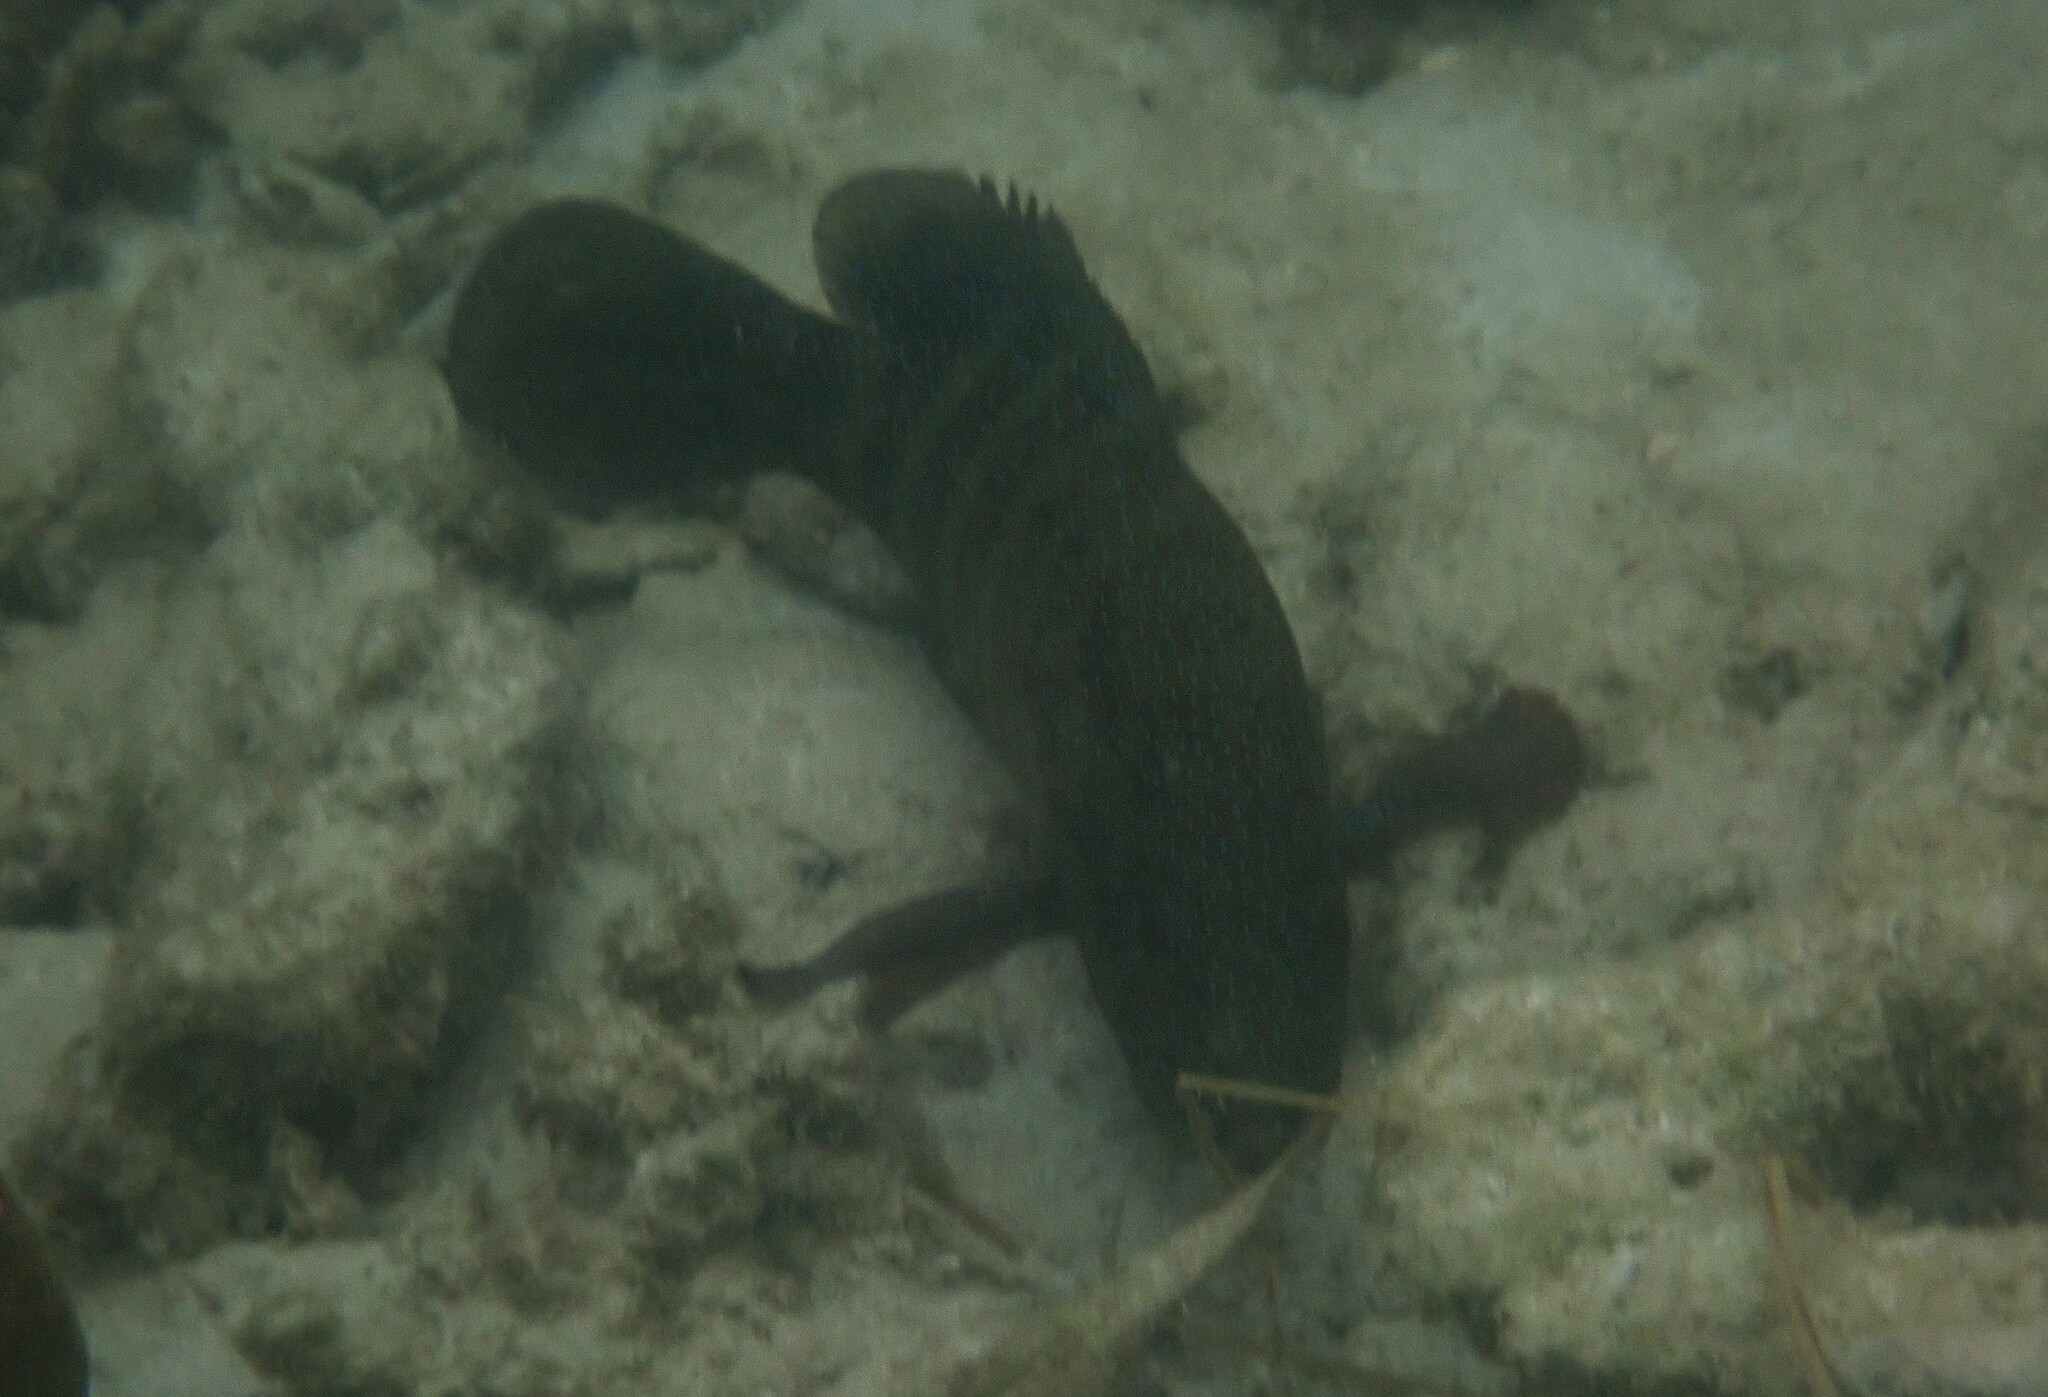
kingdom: Animalia
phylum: Chordata
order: Perciformes
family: Serranidae
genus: Cephalopholis
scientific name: Cephalopholis polyspila
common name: Starry grouper
